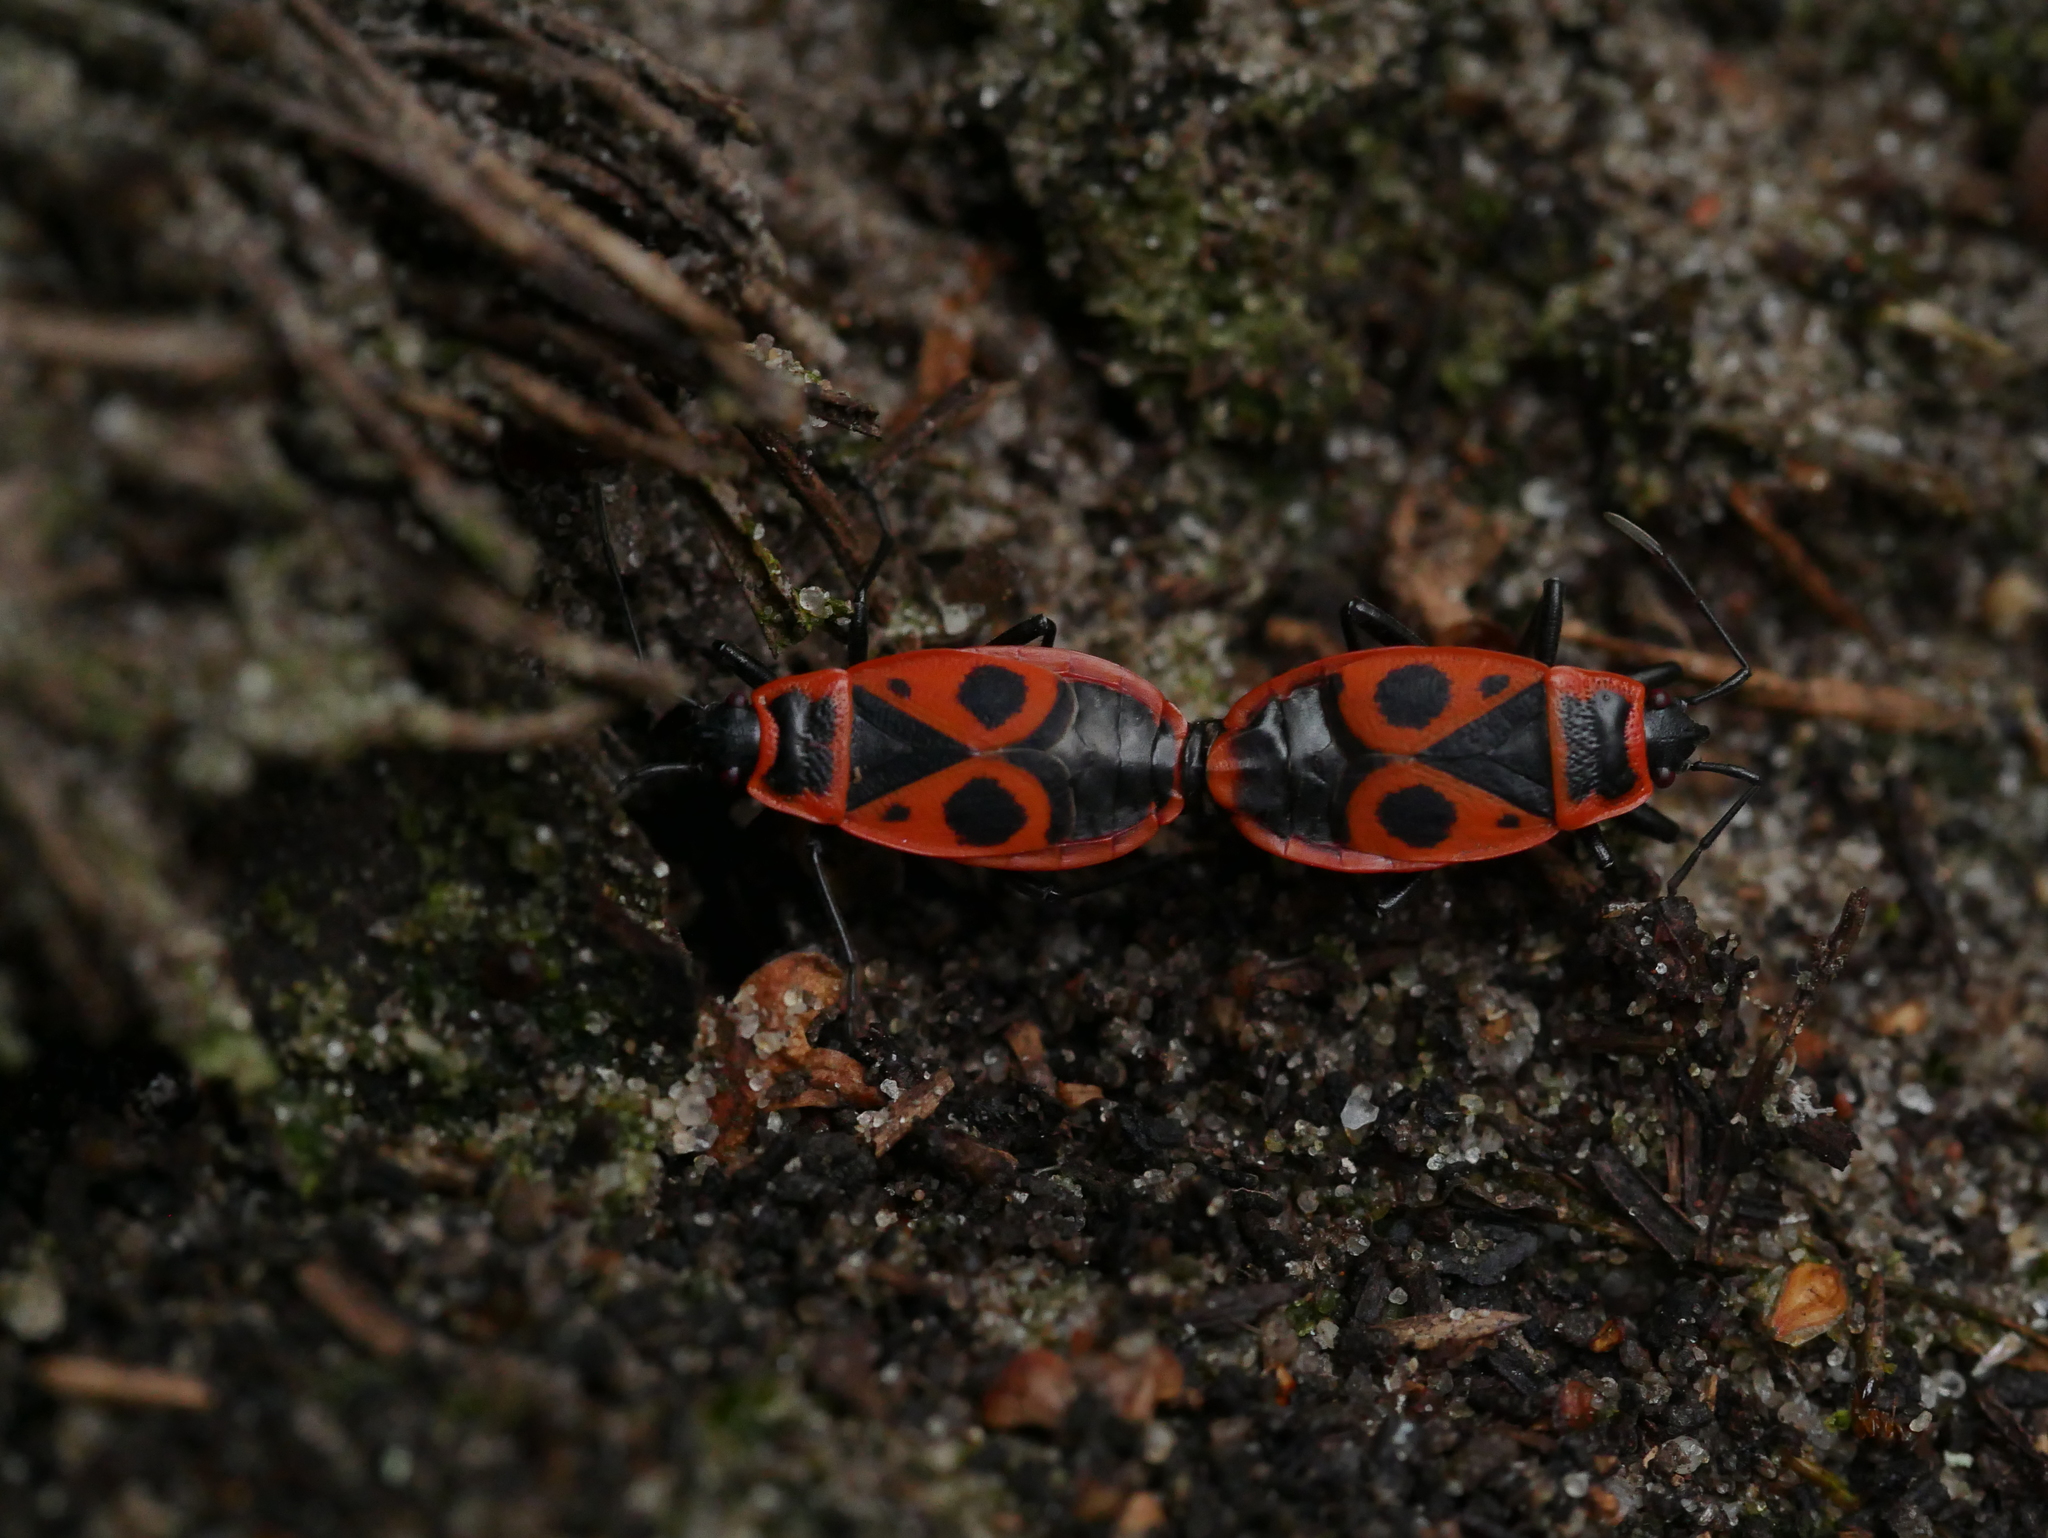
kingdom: Animalia
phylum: Arthropoda
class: Insecta
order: Hemiptera
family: Pyrrhocoridae
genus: Pyrrhocoris
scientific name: Pyrrhocoris apterus
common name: Firebug
